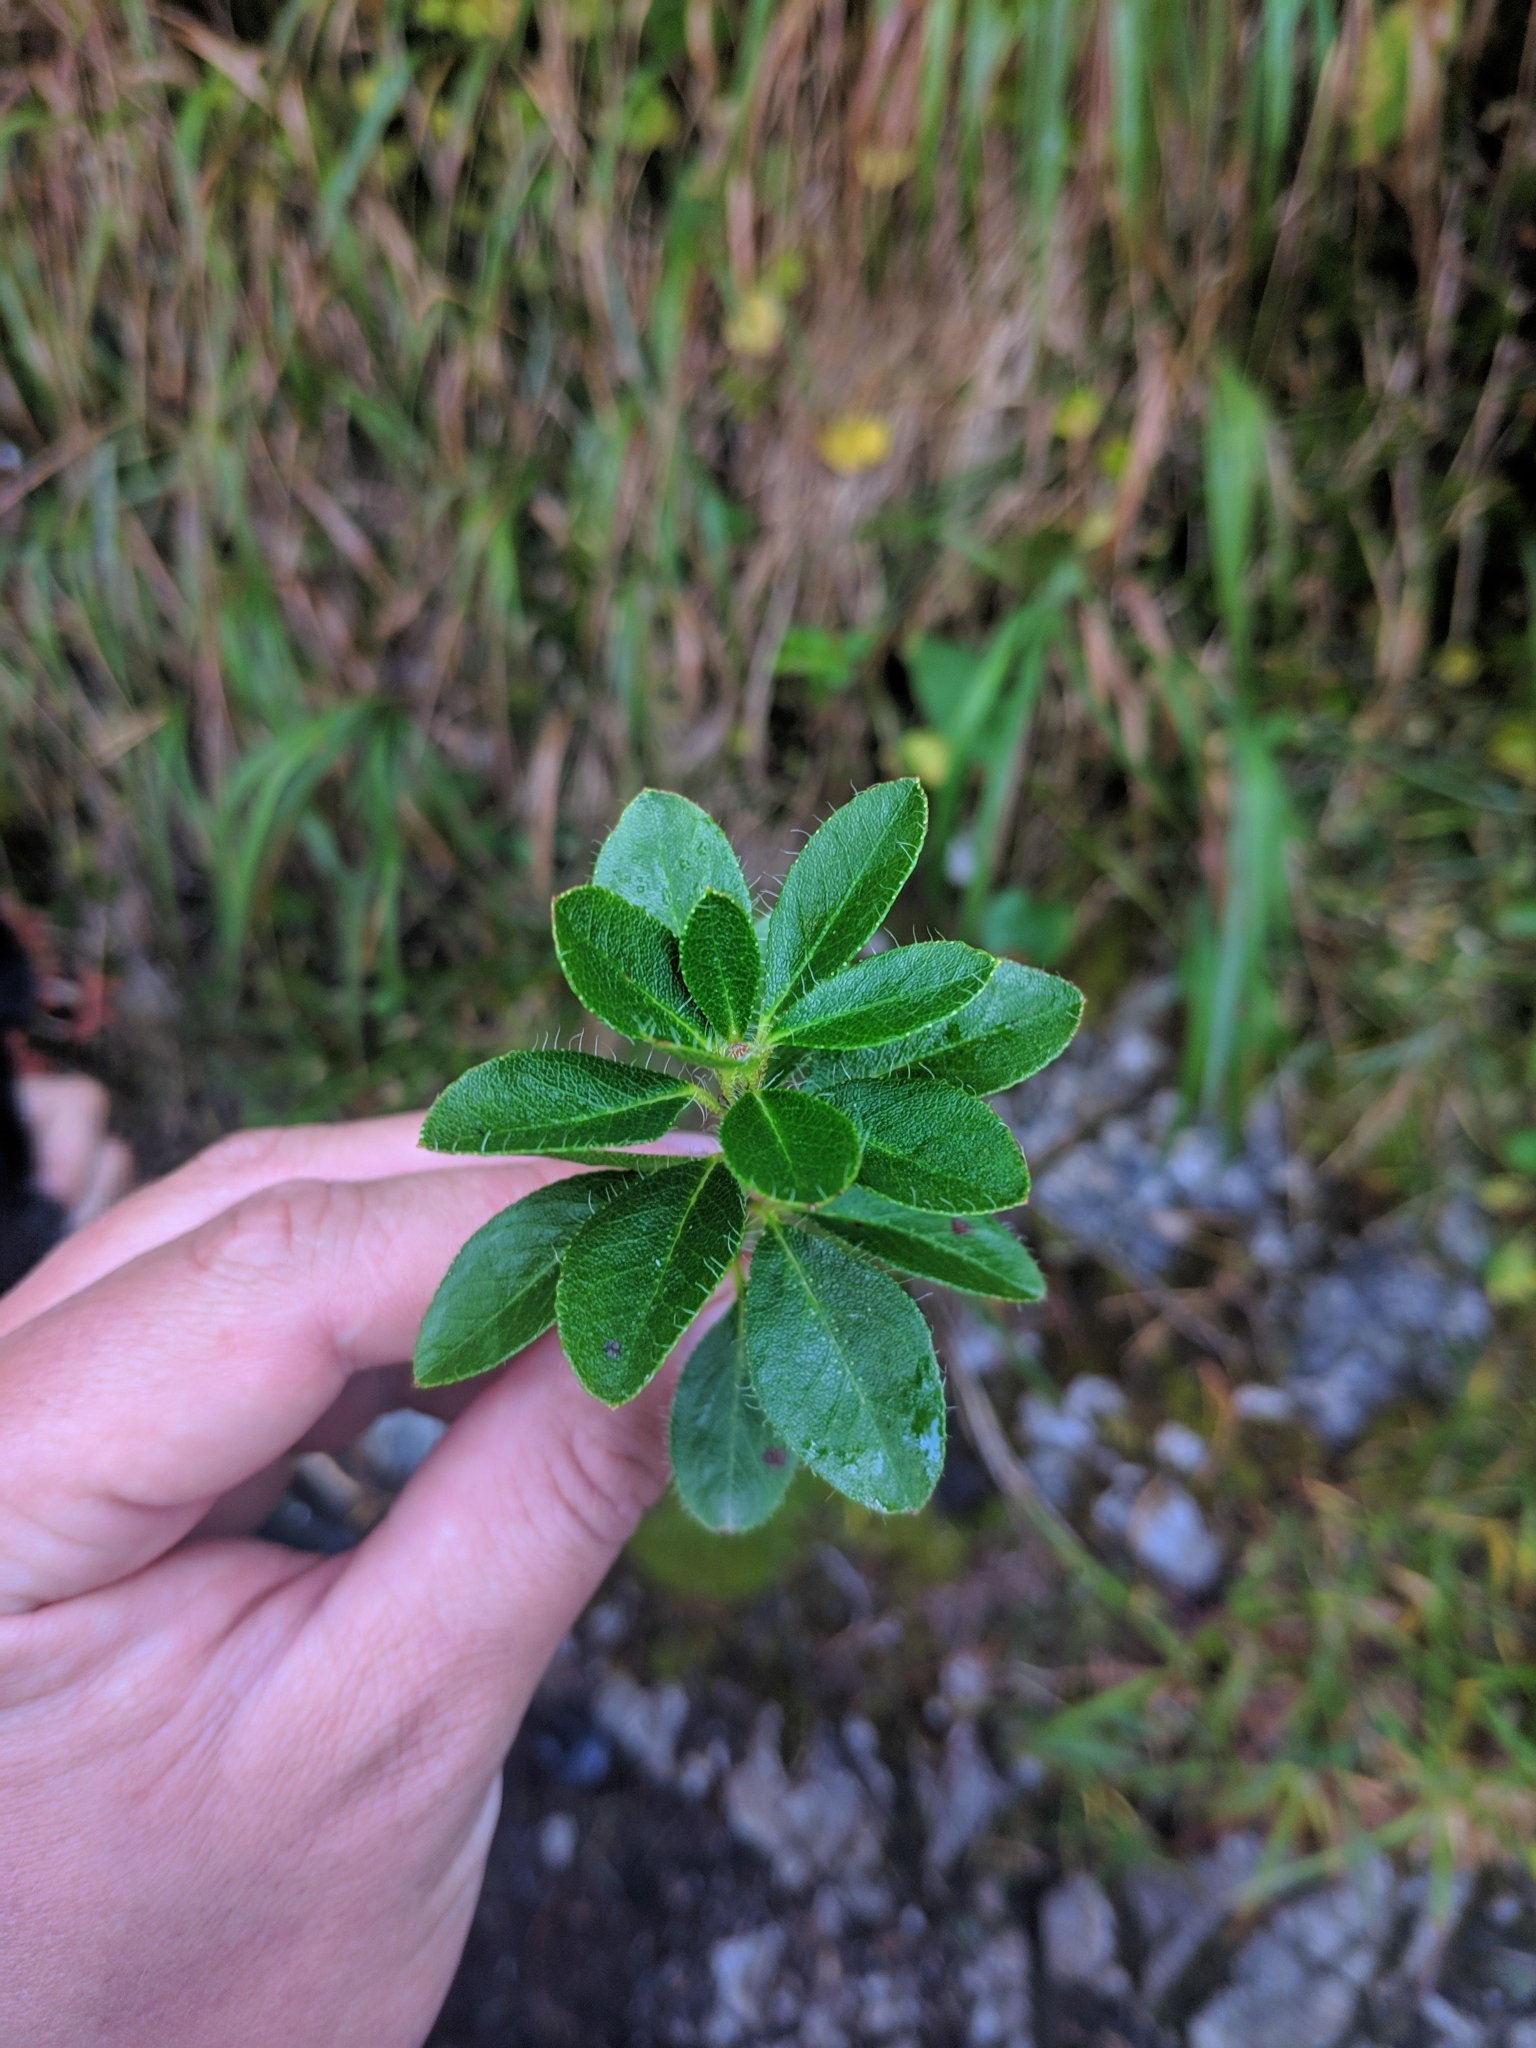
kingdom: Plantae
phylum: Tracheophyta
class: Magnoliopsida
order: Ericales
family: Ericaceae
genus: Rhododendron
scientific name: Rhododendron hirsutum
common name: Hairy alpenrose
